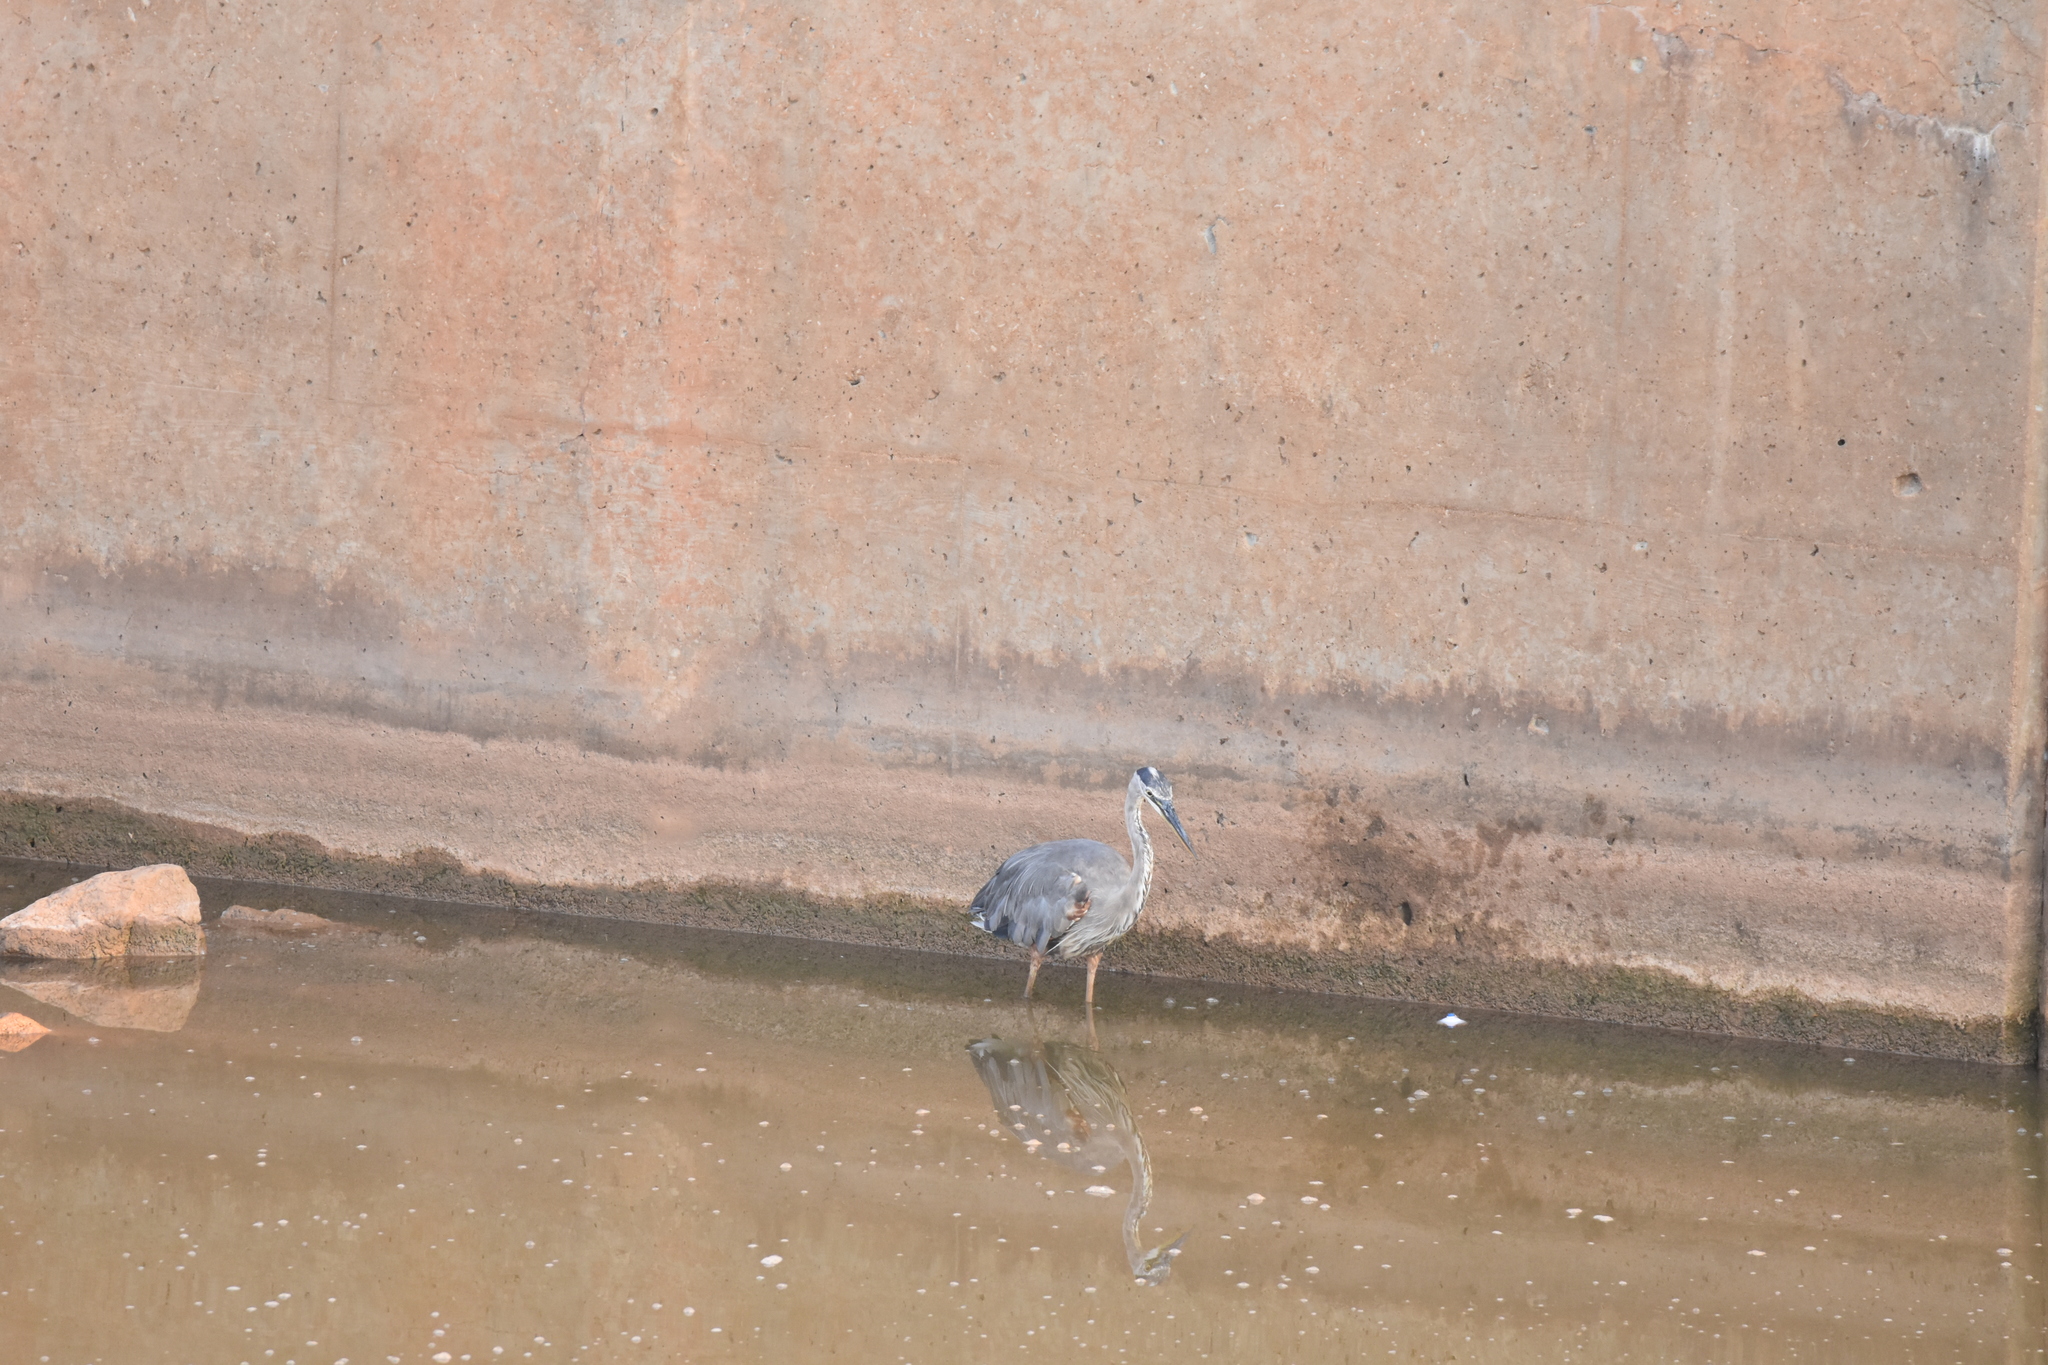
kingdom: Animalia
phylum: Chordata
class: Aves
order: Pelecaniformes
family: Ardeidae
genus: Ardea
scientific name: Ardea herodias
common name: Great blue heron
